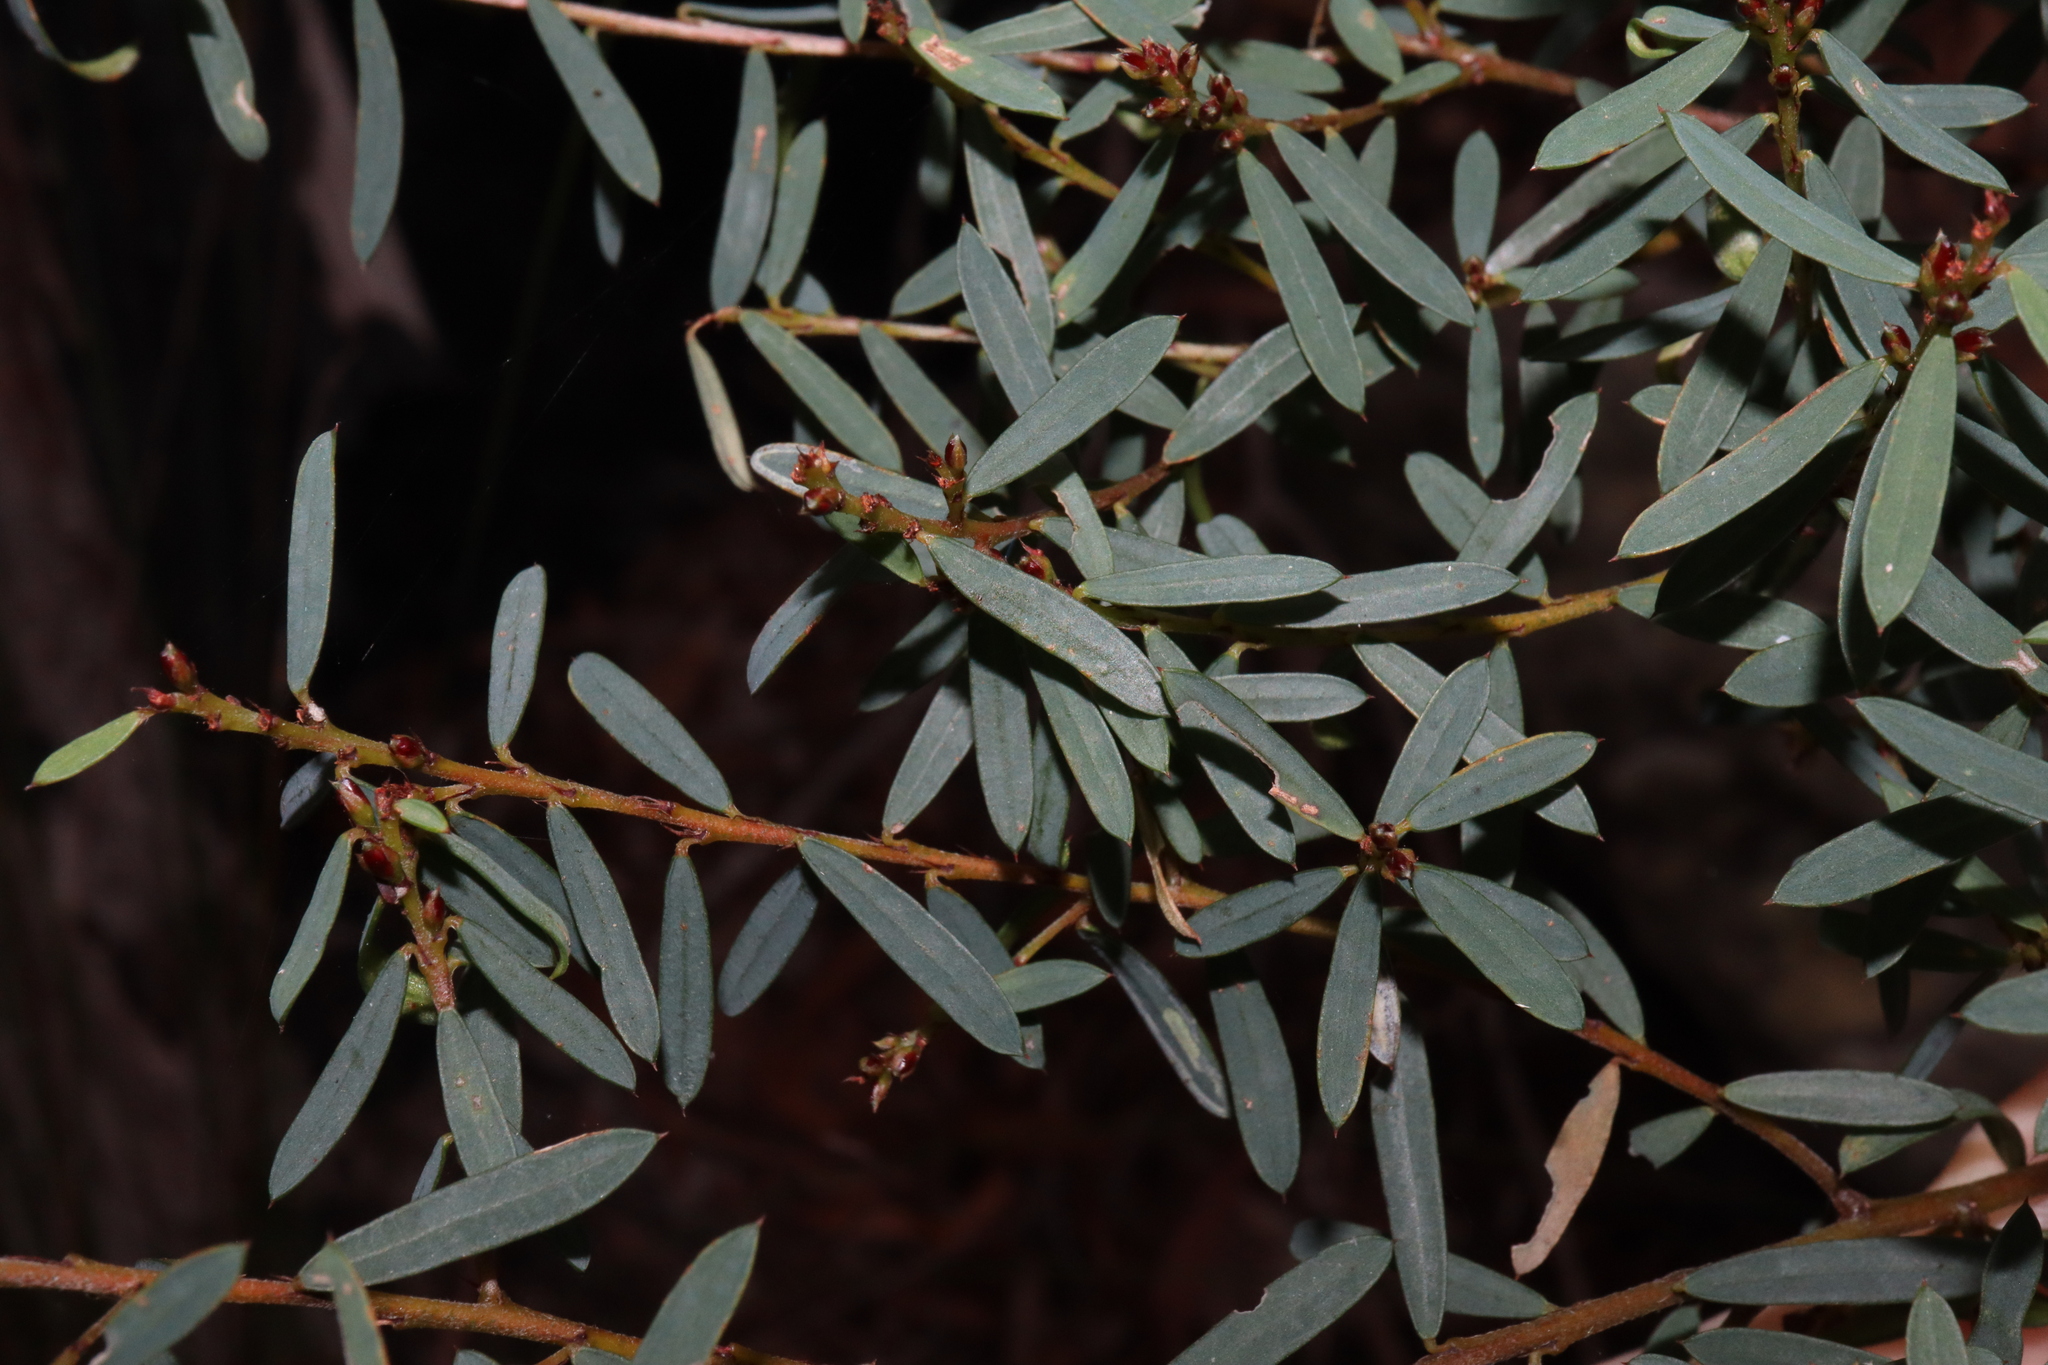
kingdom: Plantae
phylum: Tracheophyta
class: Magnoliopsida
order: Fabales
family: Fabaceae
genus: Pultenaea
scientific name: Pultenaea flexilis
